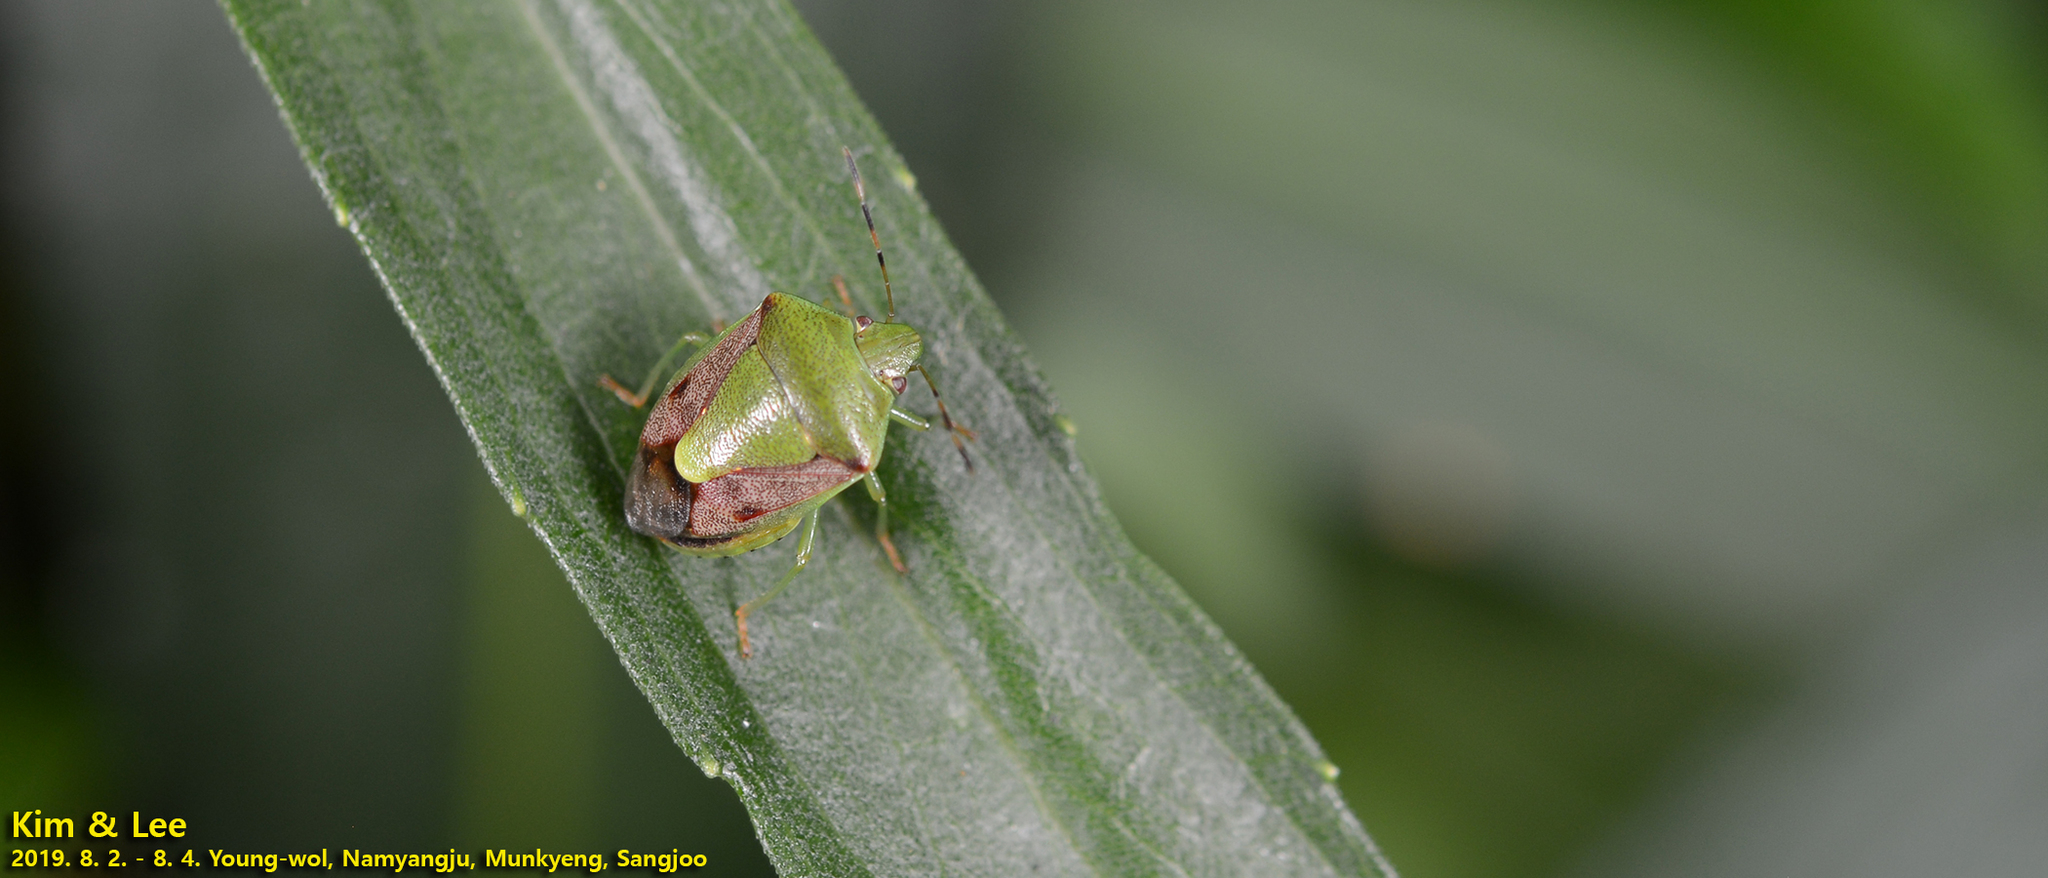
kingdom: Animalia
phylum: Arthropoda
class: Insecta
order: Hemiptera
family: Pentatomidae
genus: Plautia
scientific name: Plautia stali
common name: Stink bug
